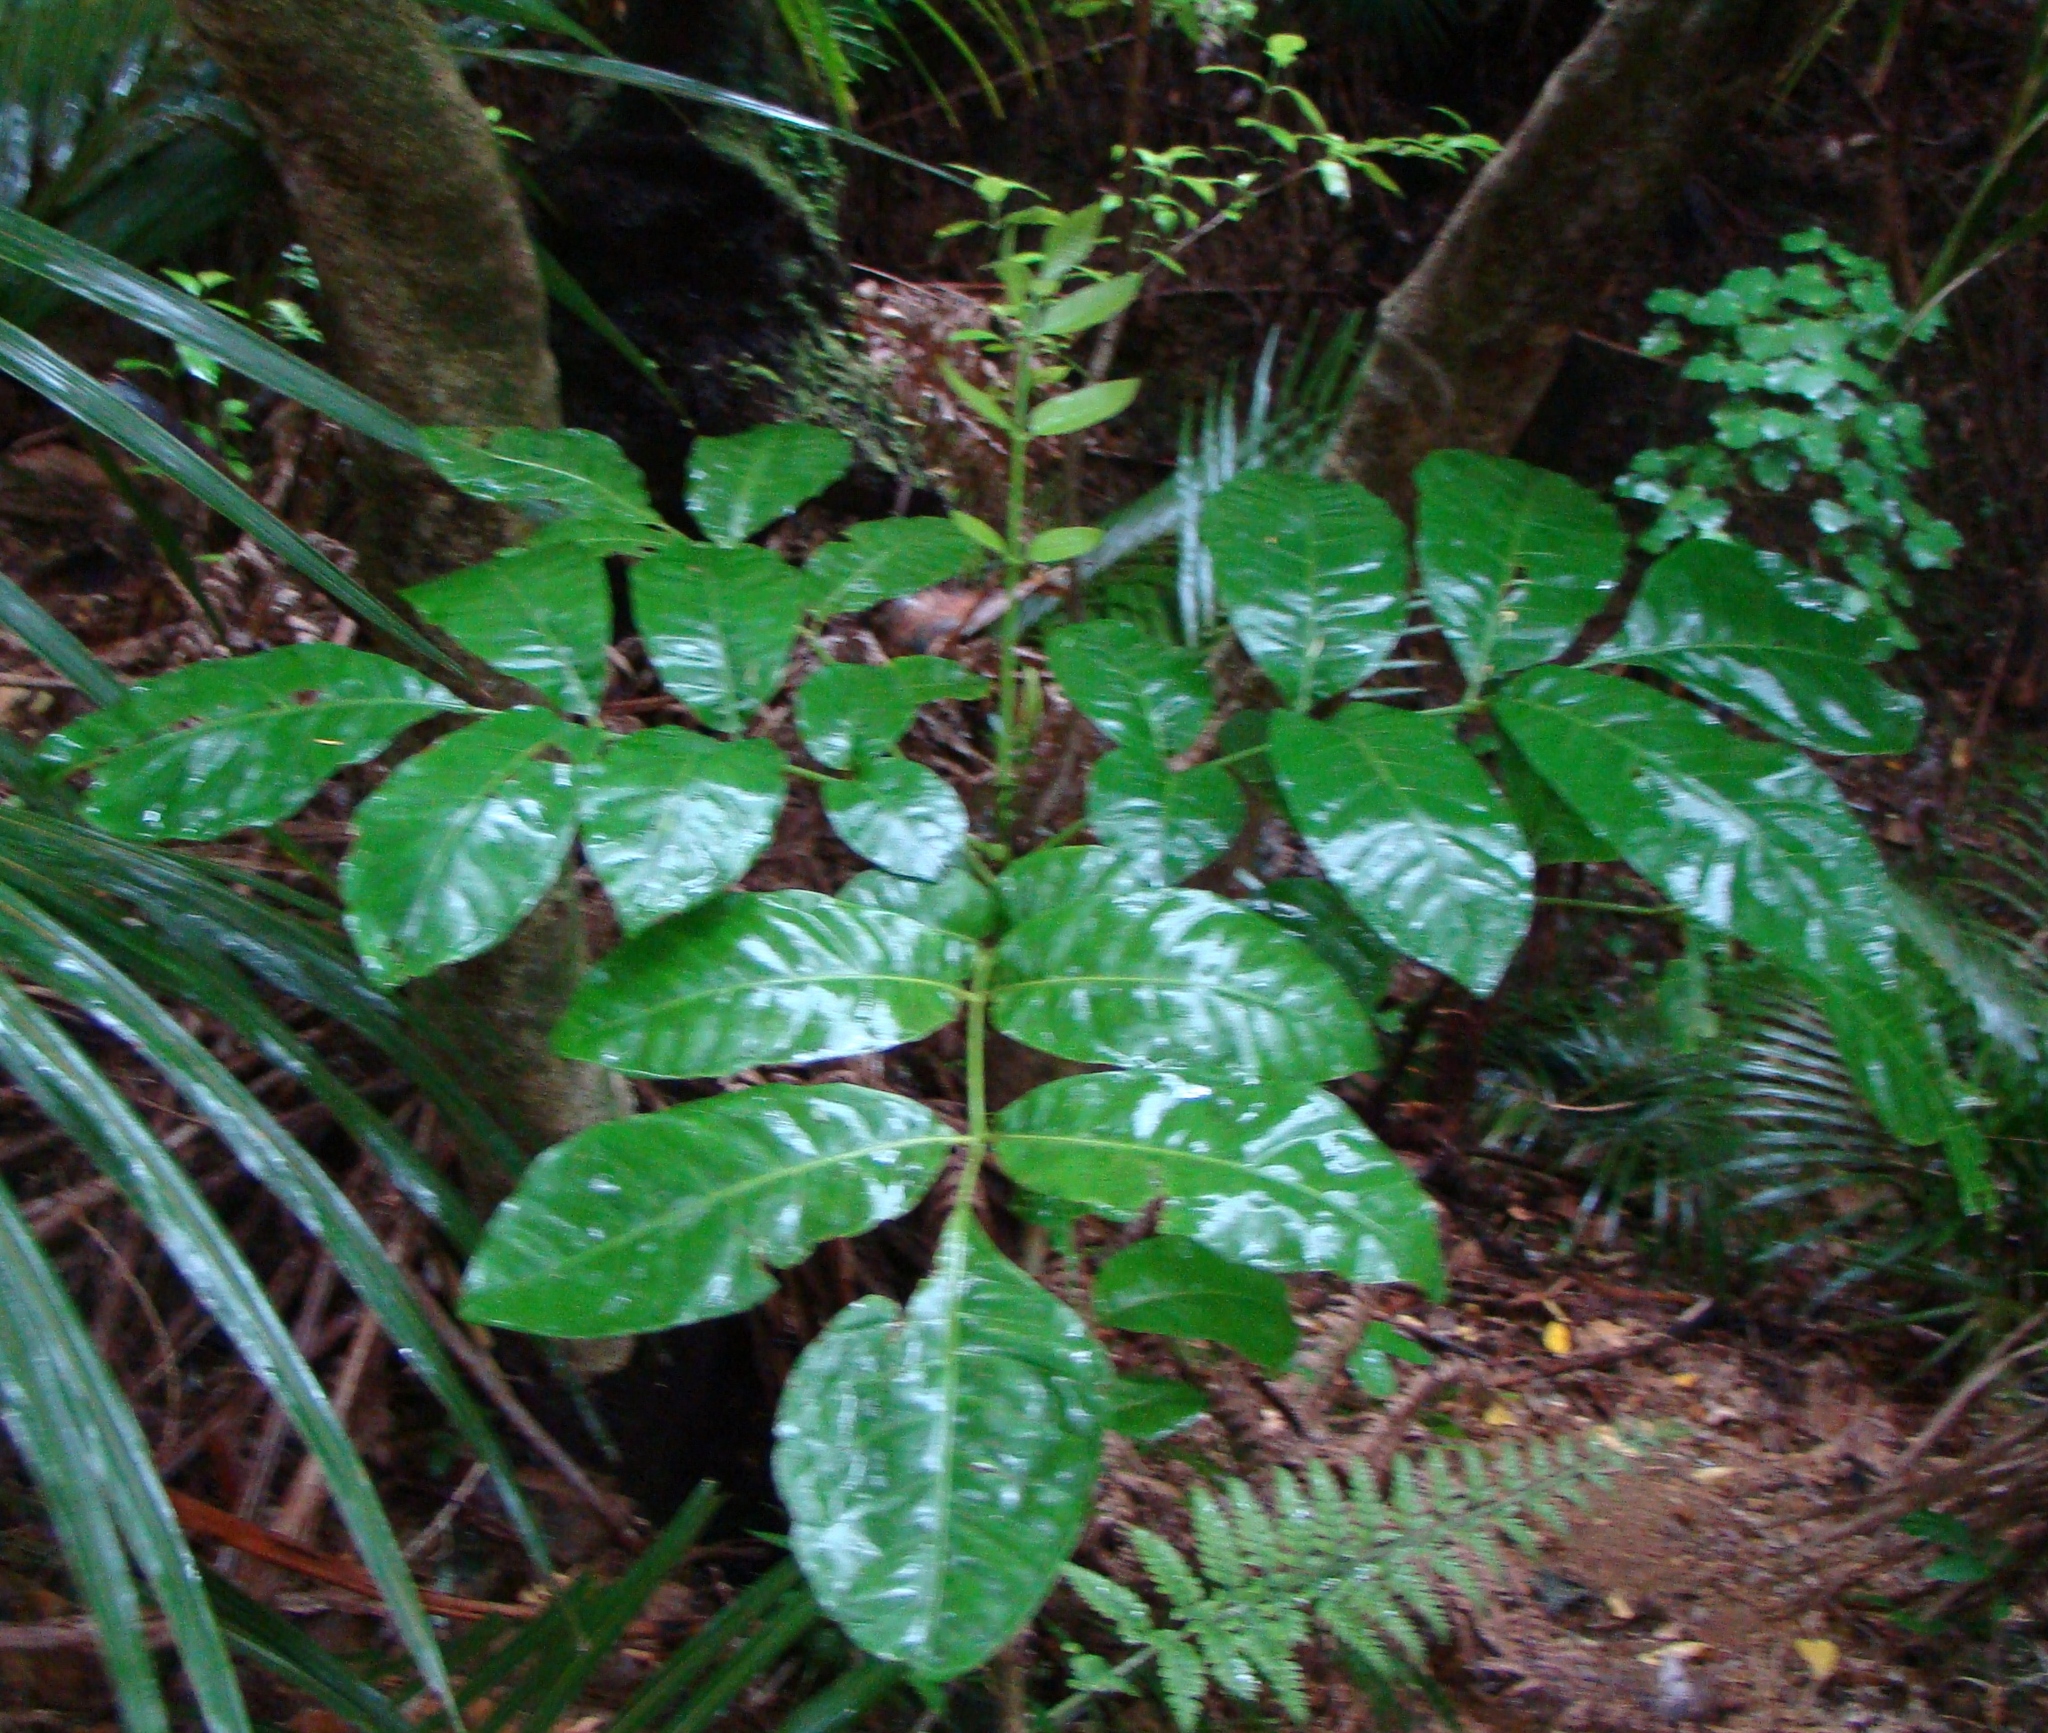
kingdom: Plantae
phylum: Tracheophyta
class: Magnoliopsida
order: Sapindales
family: Meliaceae
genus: Didymocheton
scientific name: Didymocheton spectabilis
